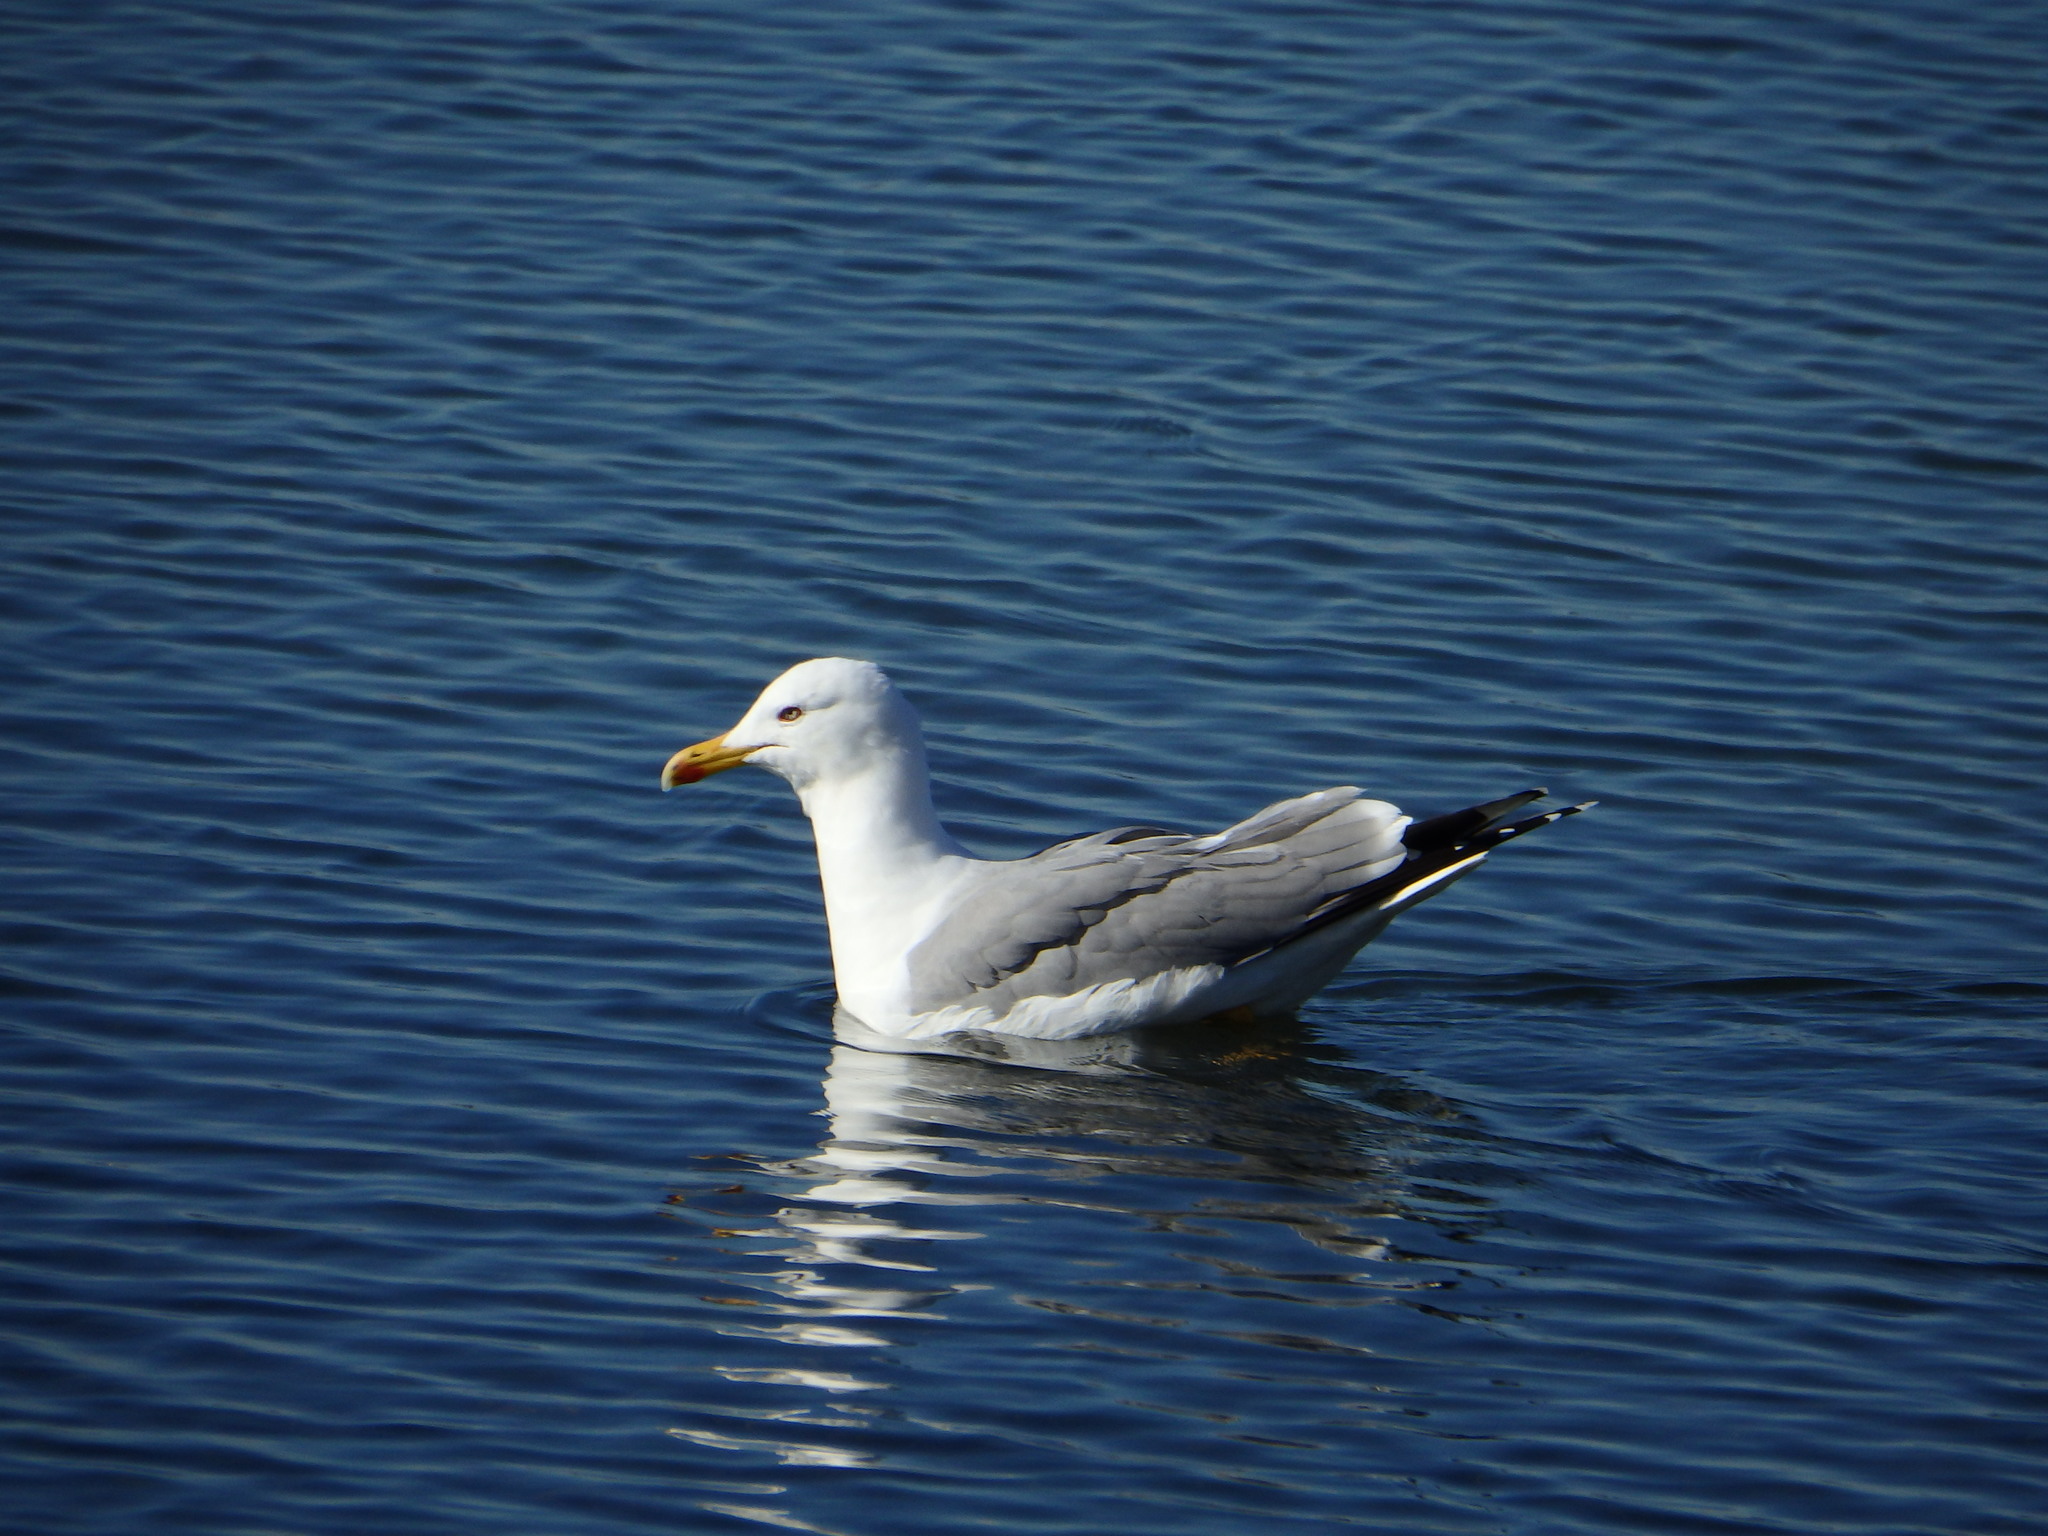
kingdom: Animalia
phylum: Chordata
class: Aves
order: Charadriiformes
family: Laridae
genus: Larus
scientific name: Larus michahellis
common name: Yellow-legged gull
